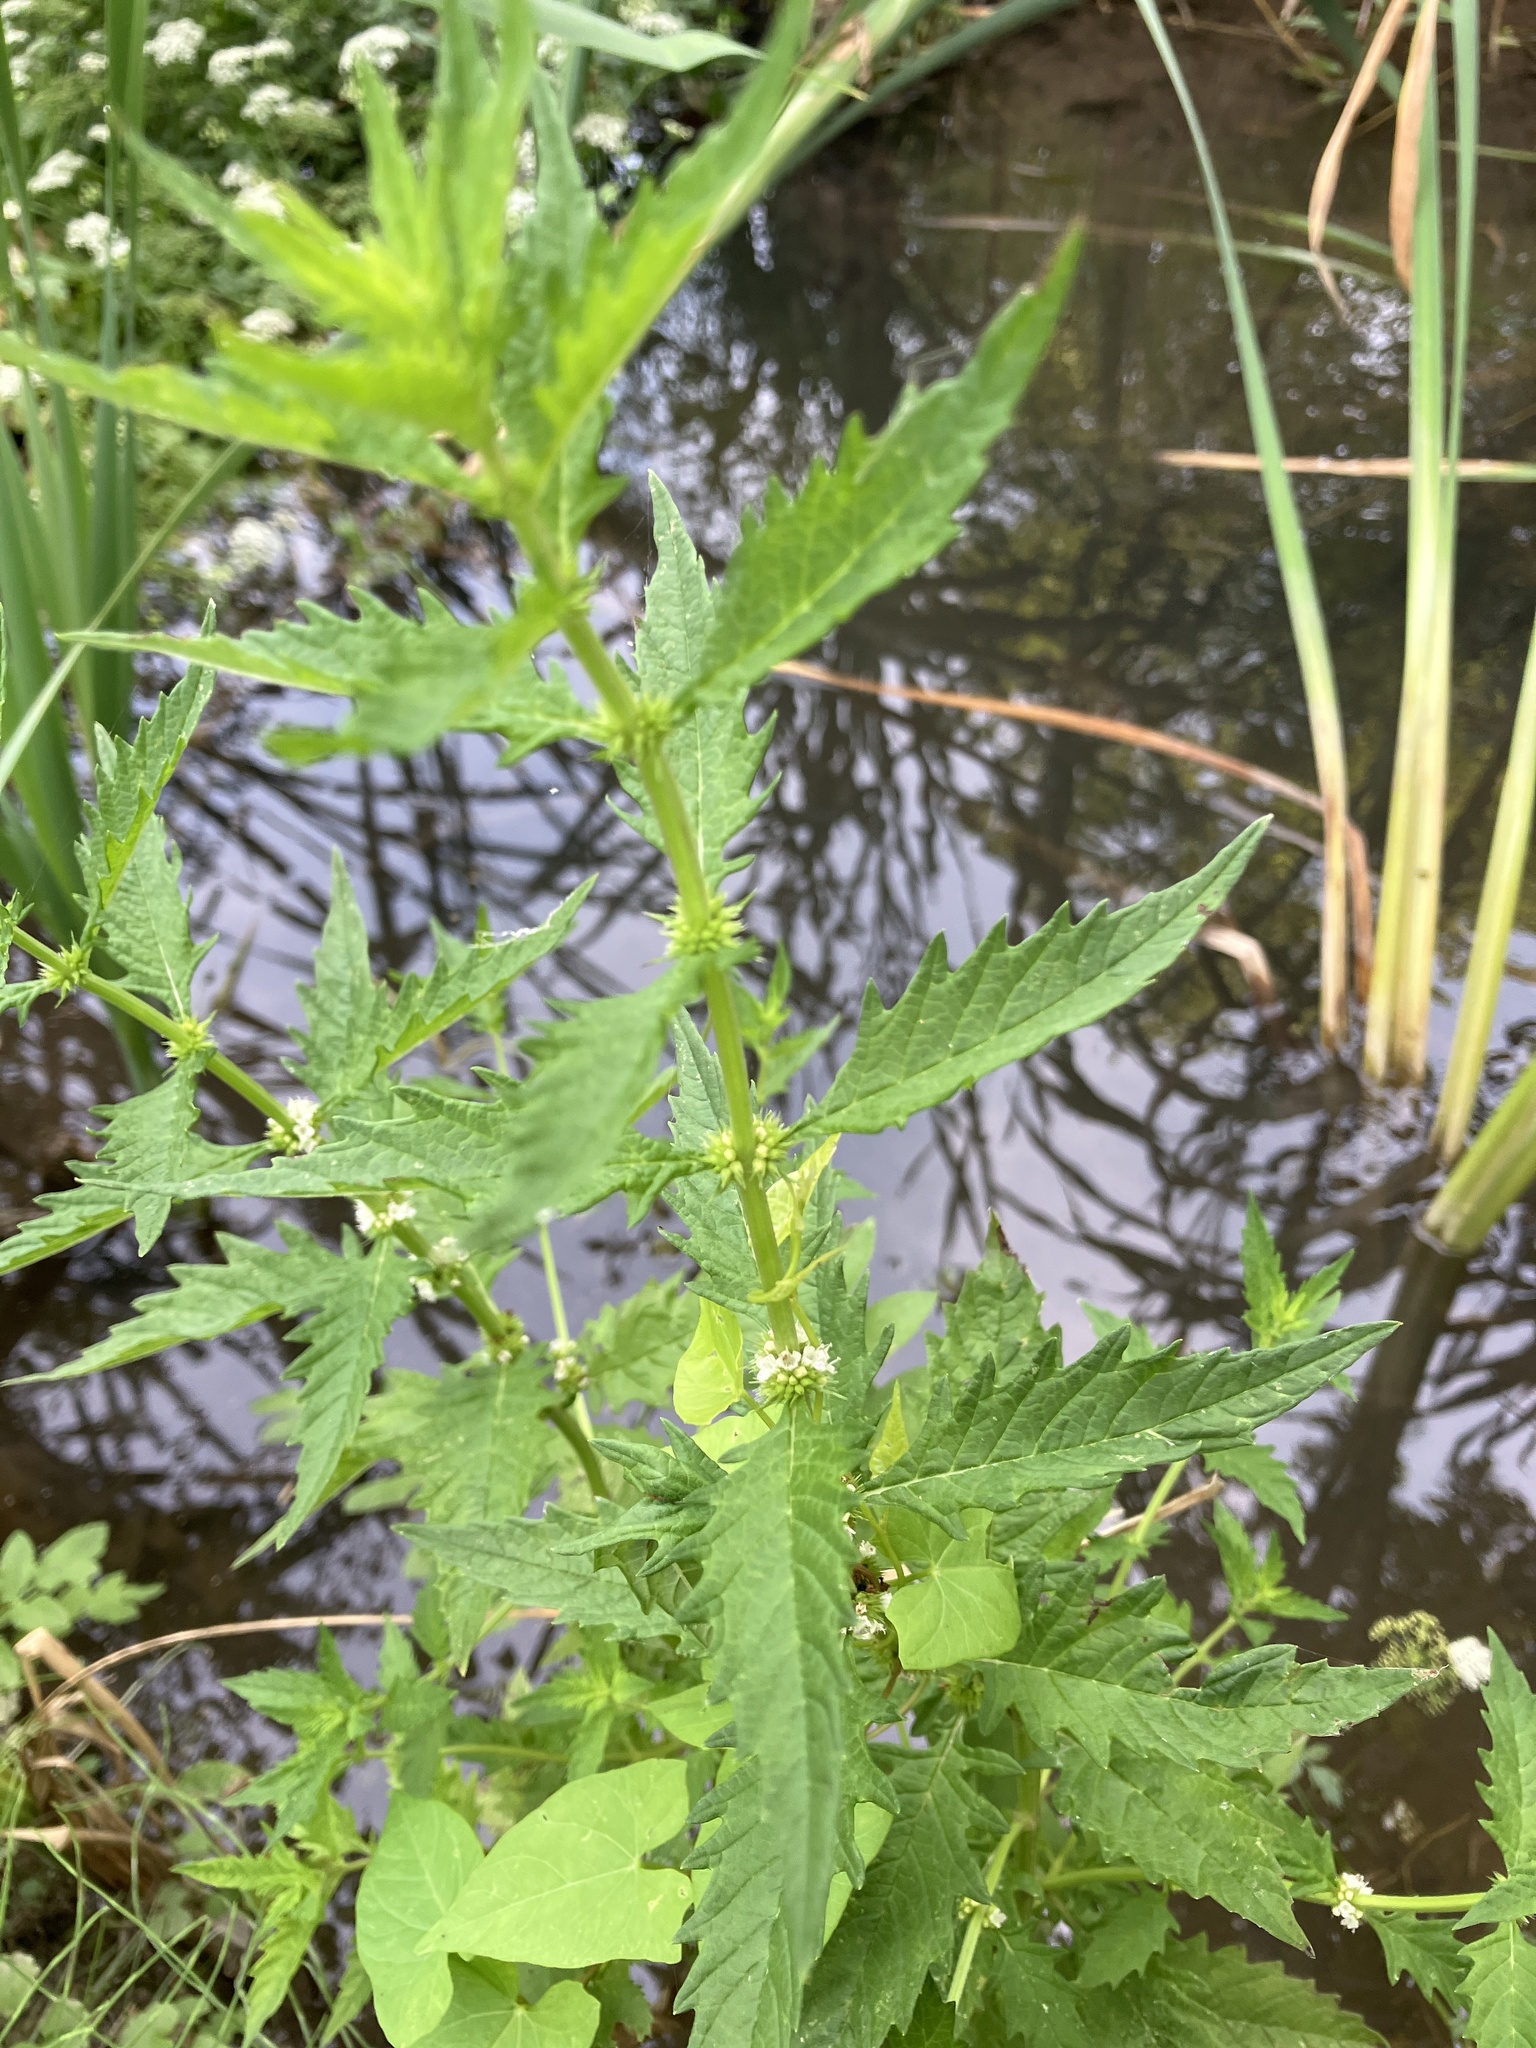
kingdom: Plantae
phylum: Tracheophyta
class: Magnoliopsida
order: Lamiales
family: Lamiaceae
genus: Lycopus
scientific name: Lycopus europaeus
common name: European bugleweed
